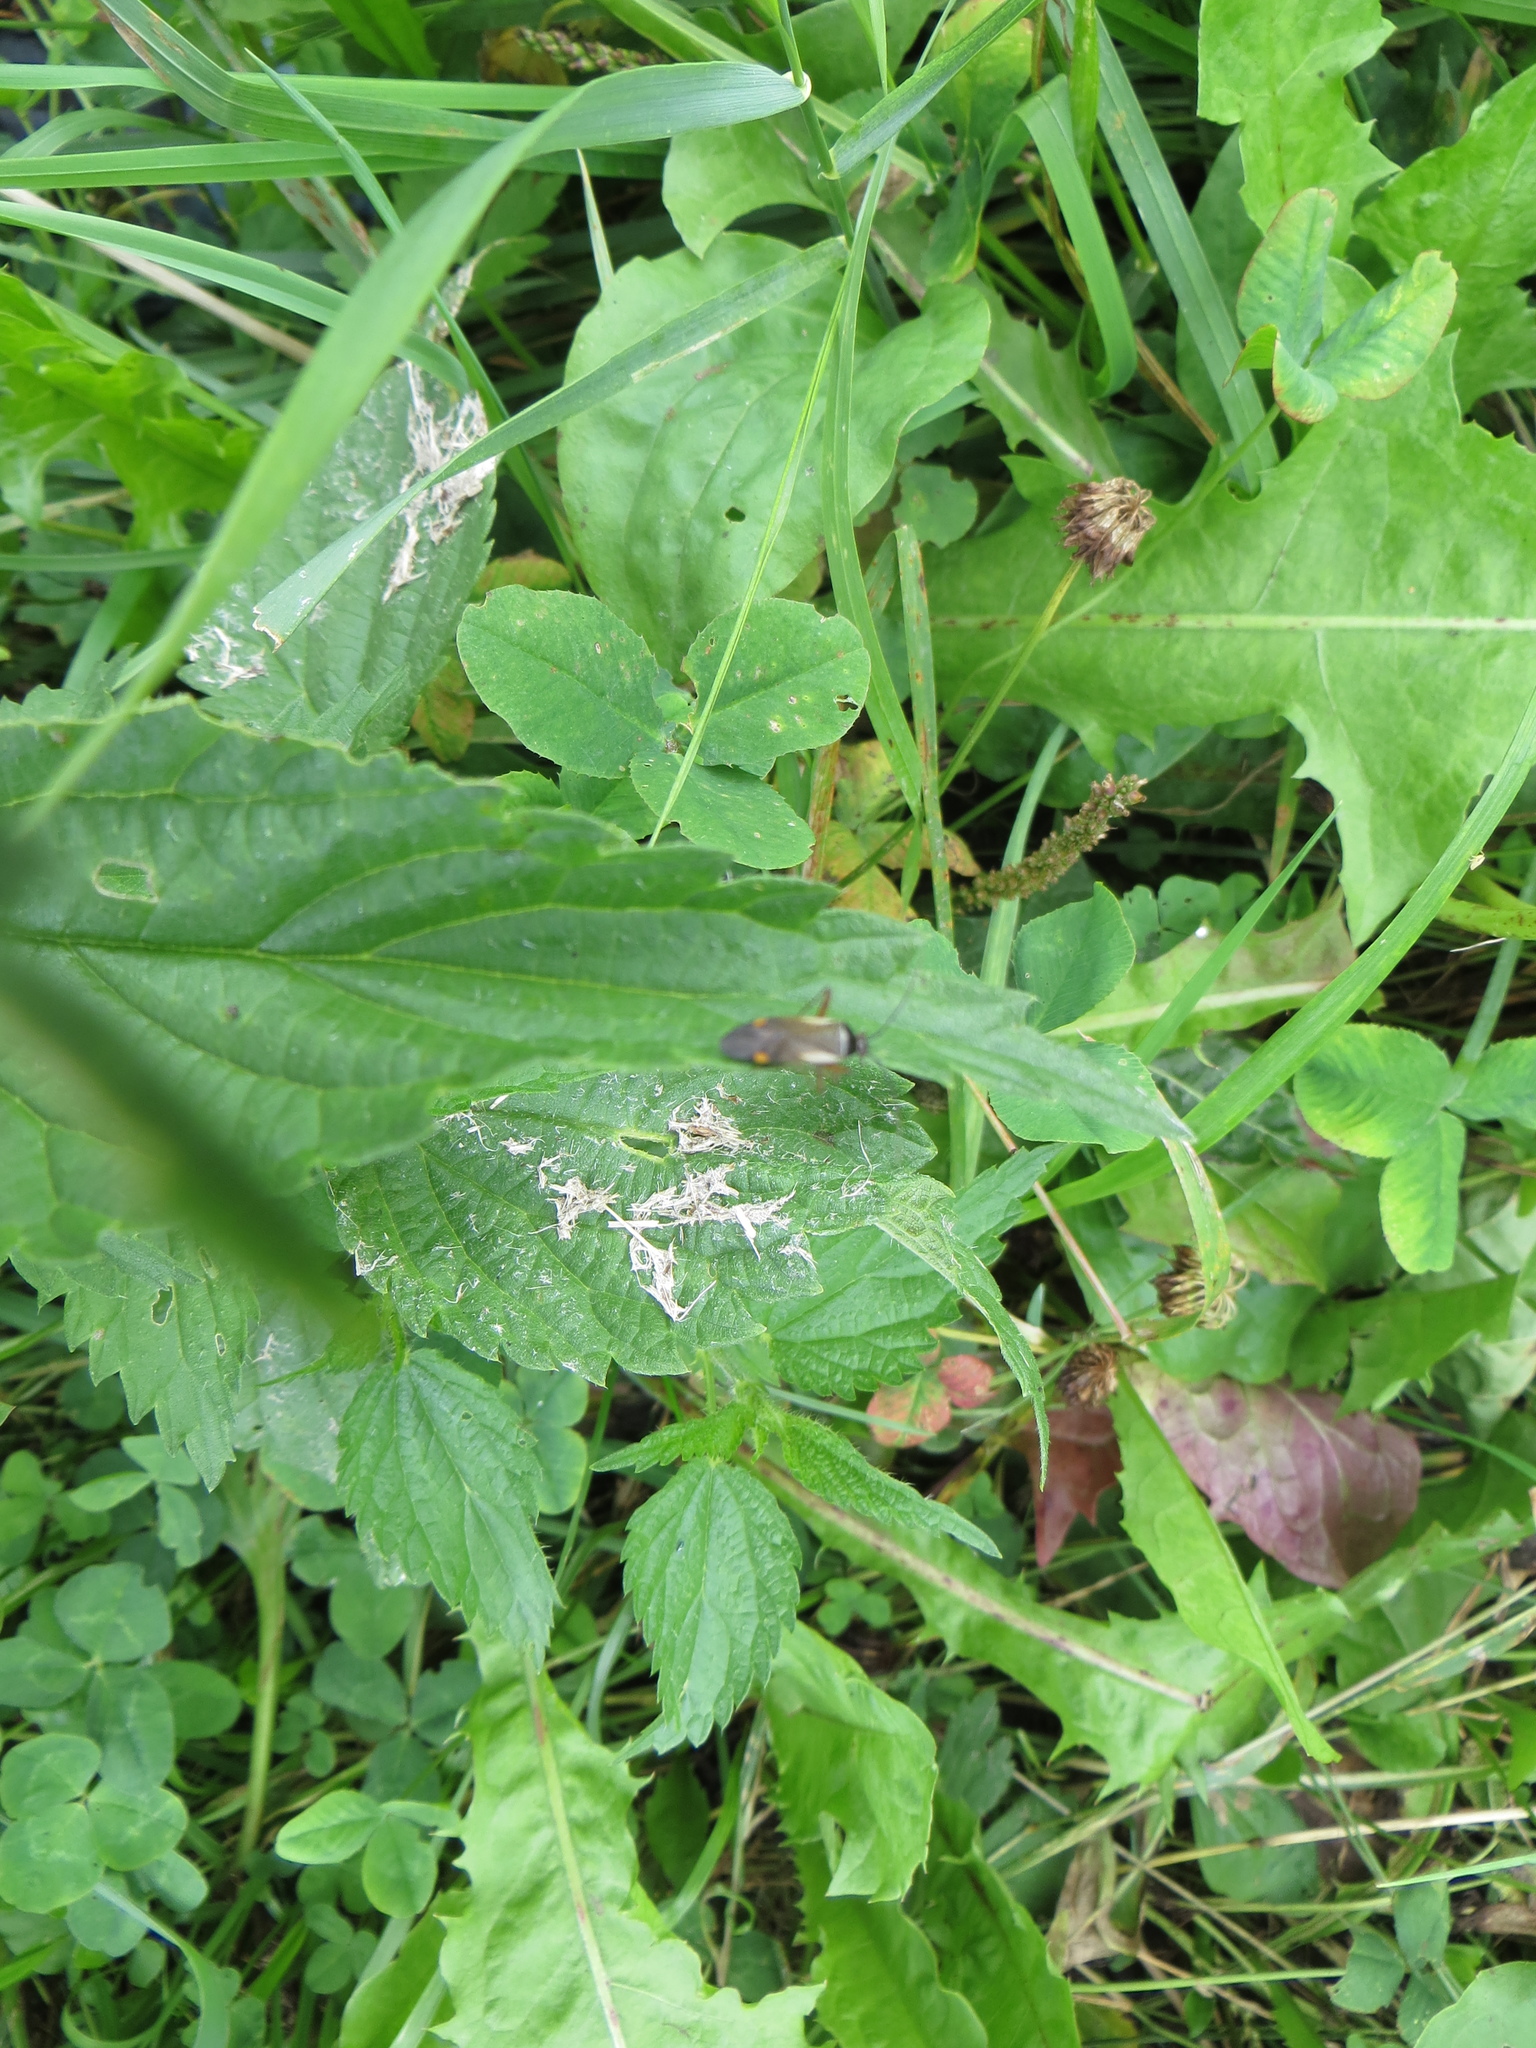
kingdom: Animalia
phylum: Arthropoda
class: Insecta
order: Hemiptera
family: Miridae
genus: Adelphocoris
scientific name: Adelphocoris seticornis
